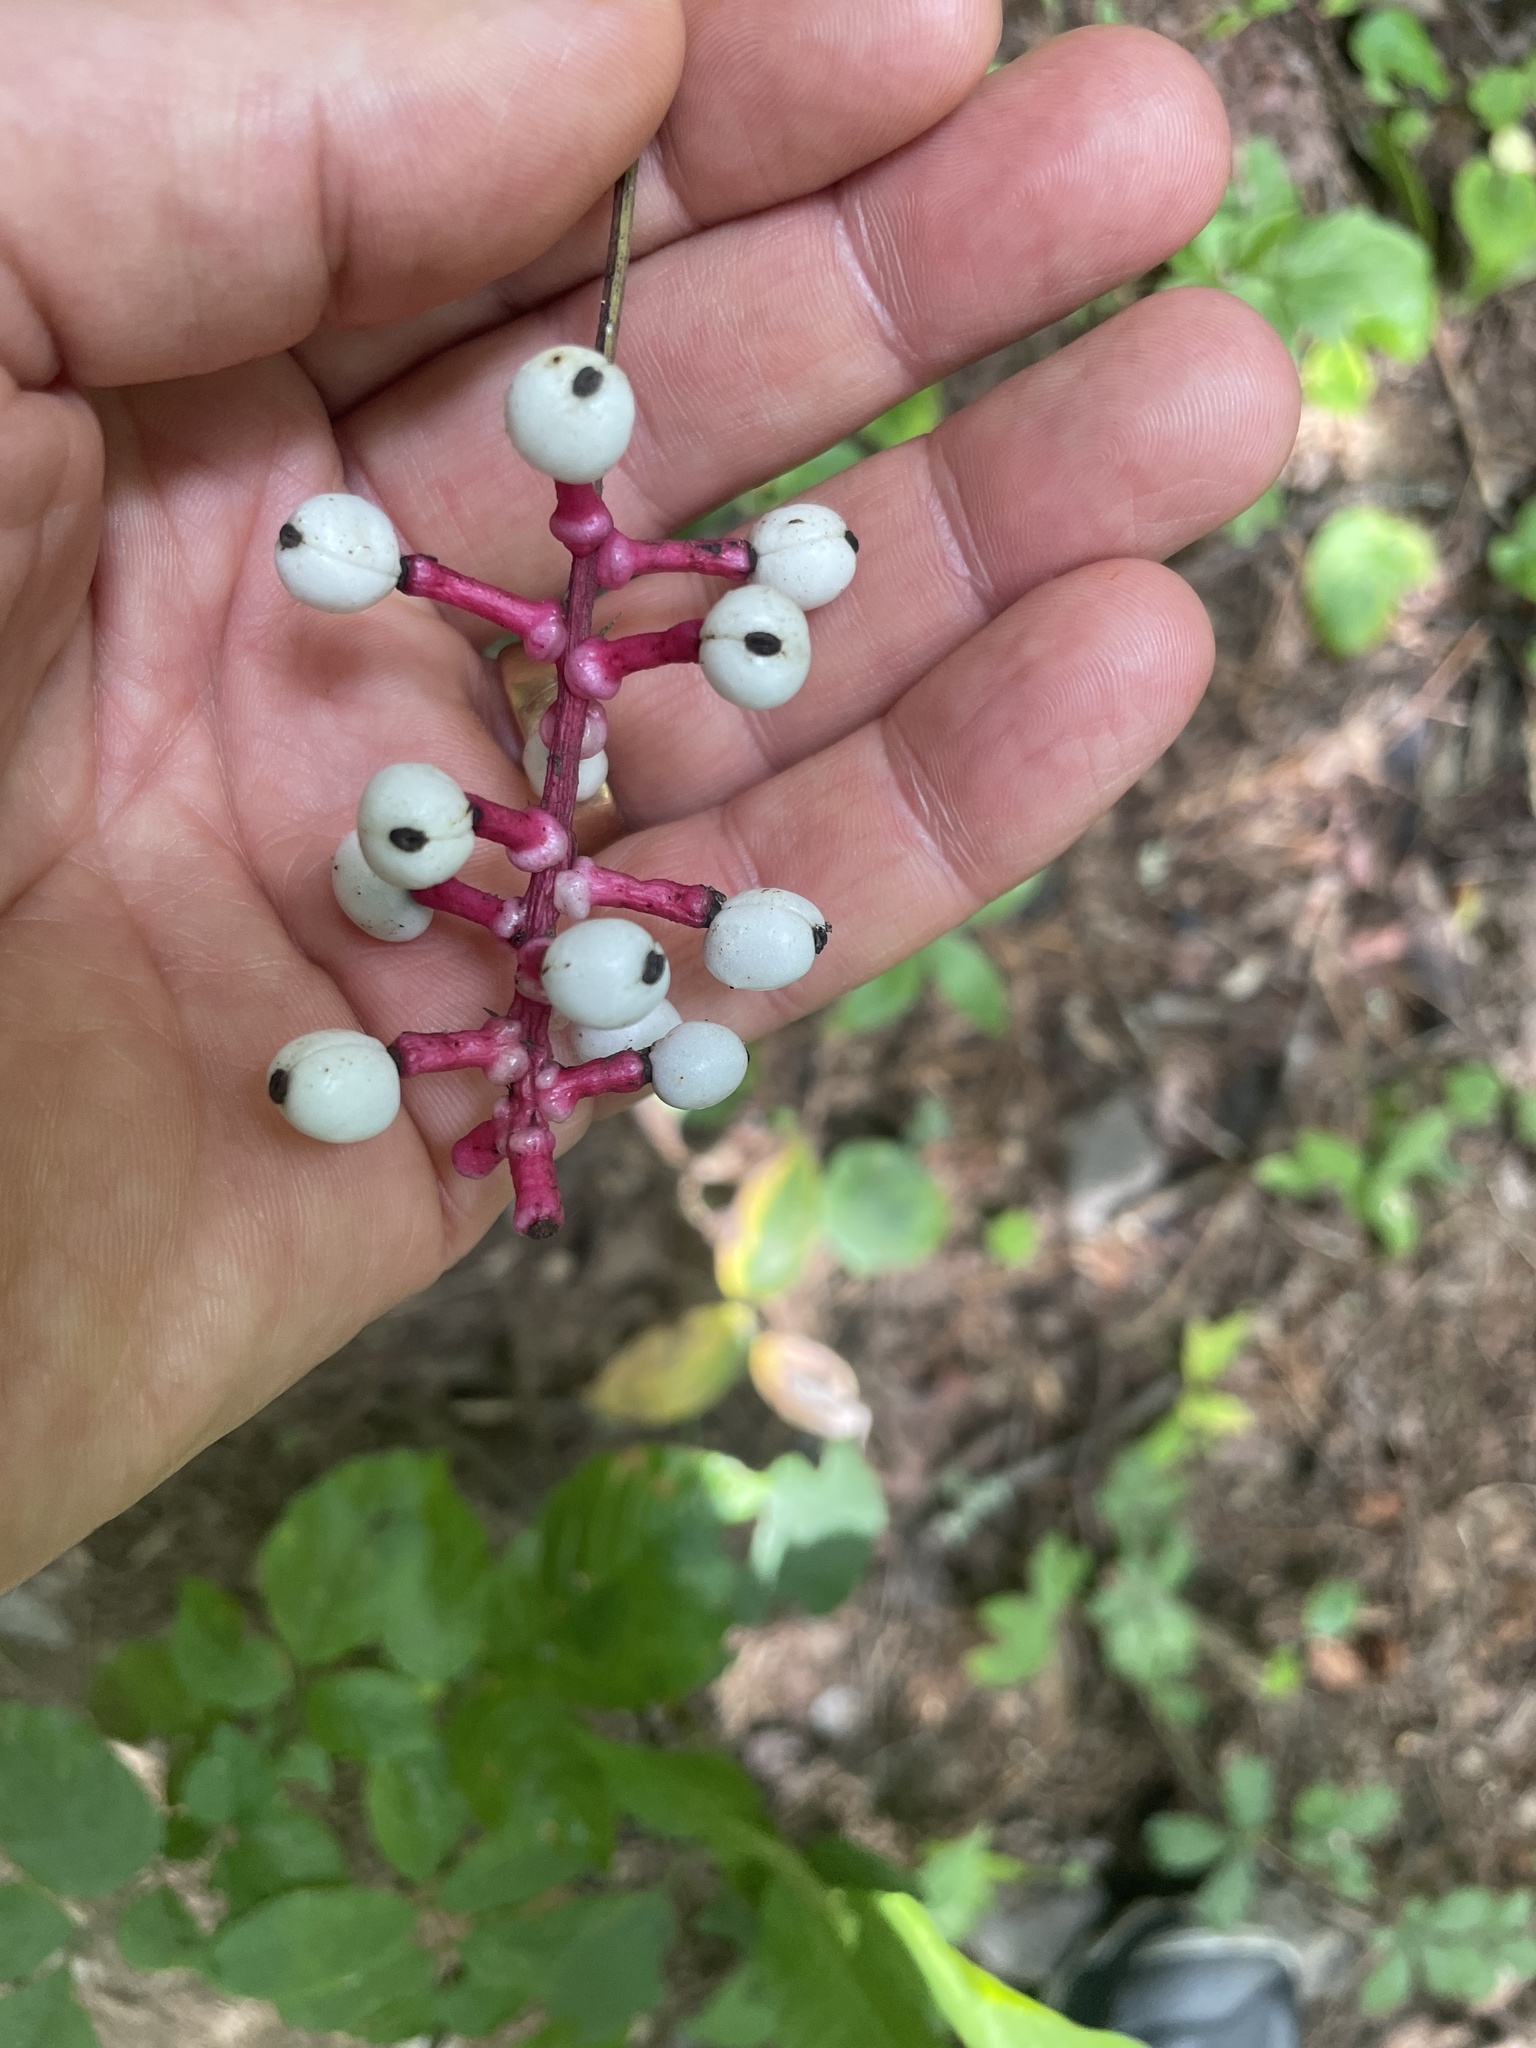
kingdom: Plantae
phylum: Tracheophyta
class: Magnoliopsida
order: Ranunculales
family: Ranunculaceae
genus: Actaea
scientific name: Actaea pachypoda
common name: Doll's-eyes
